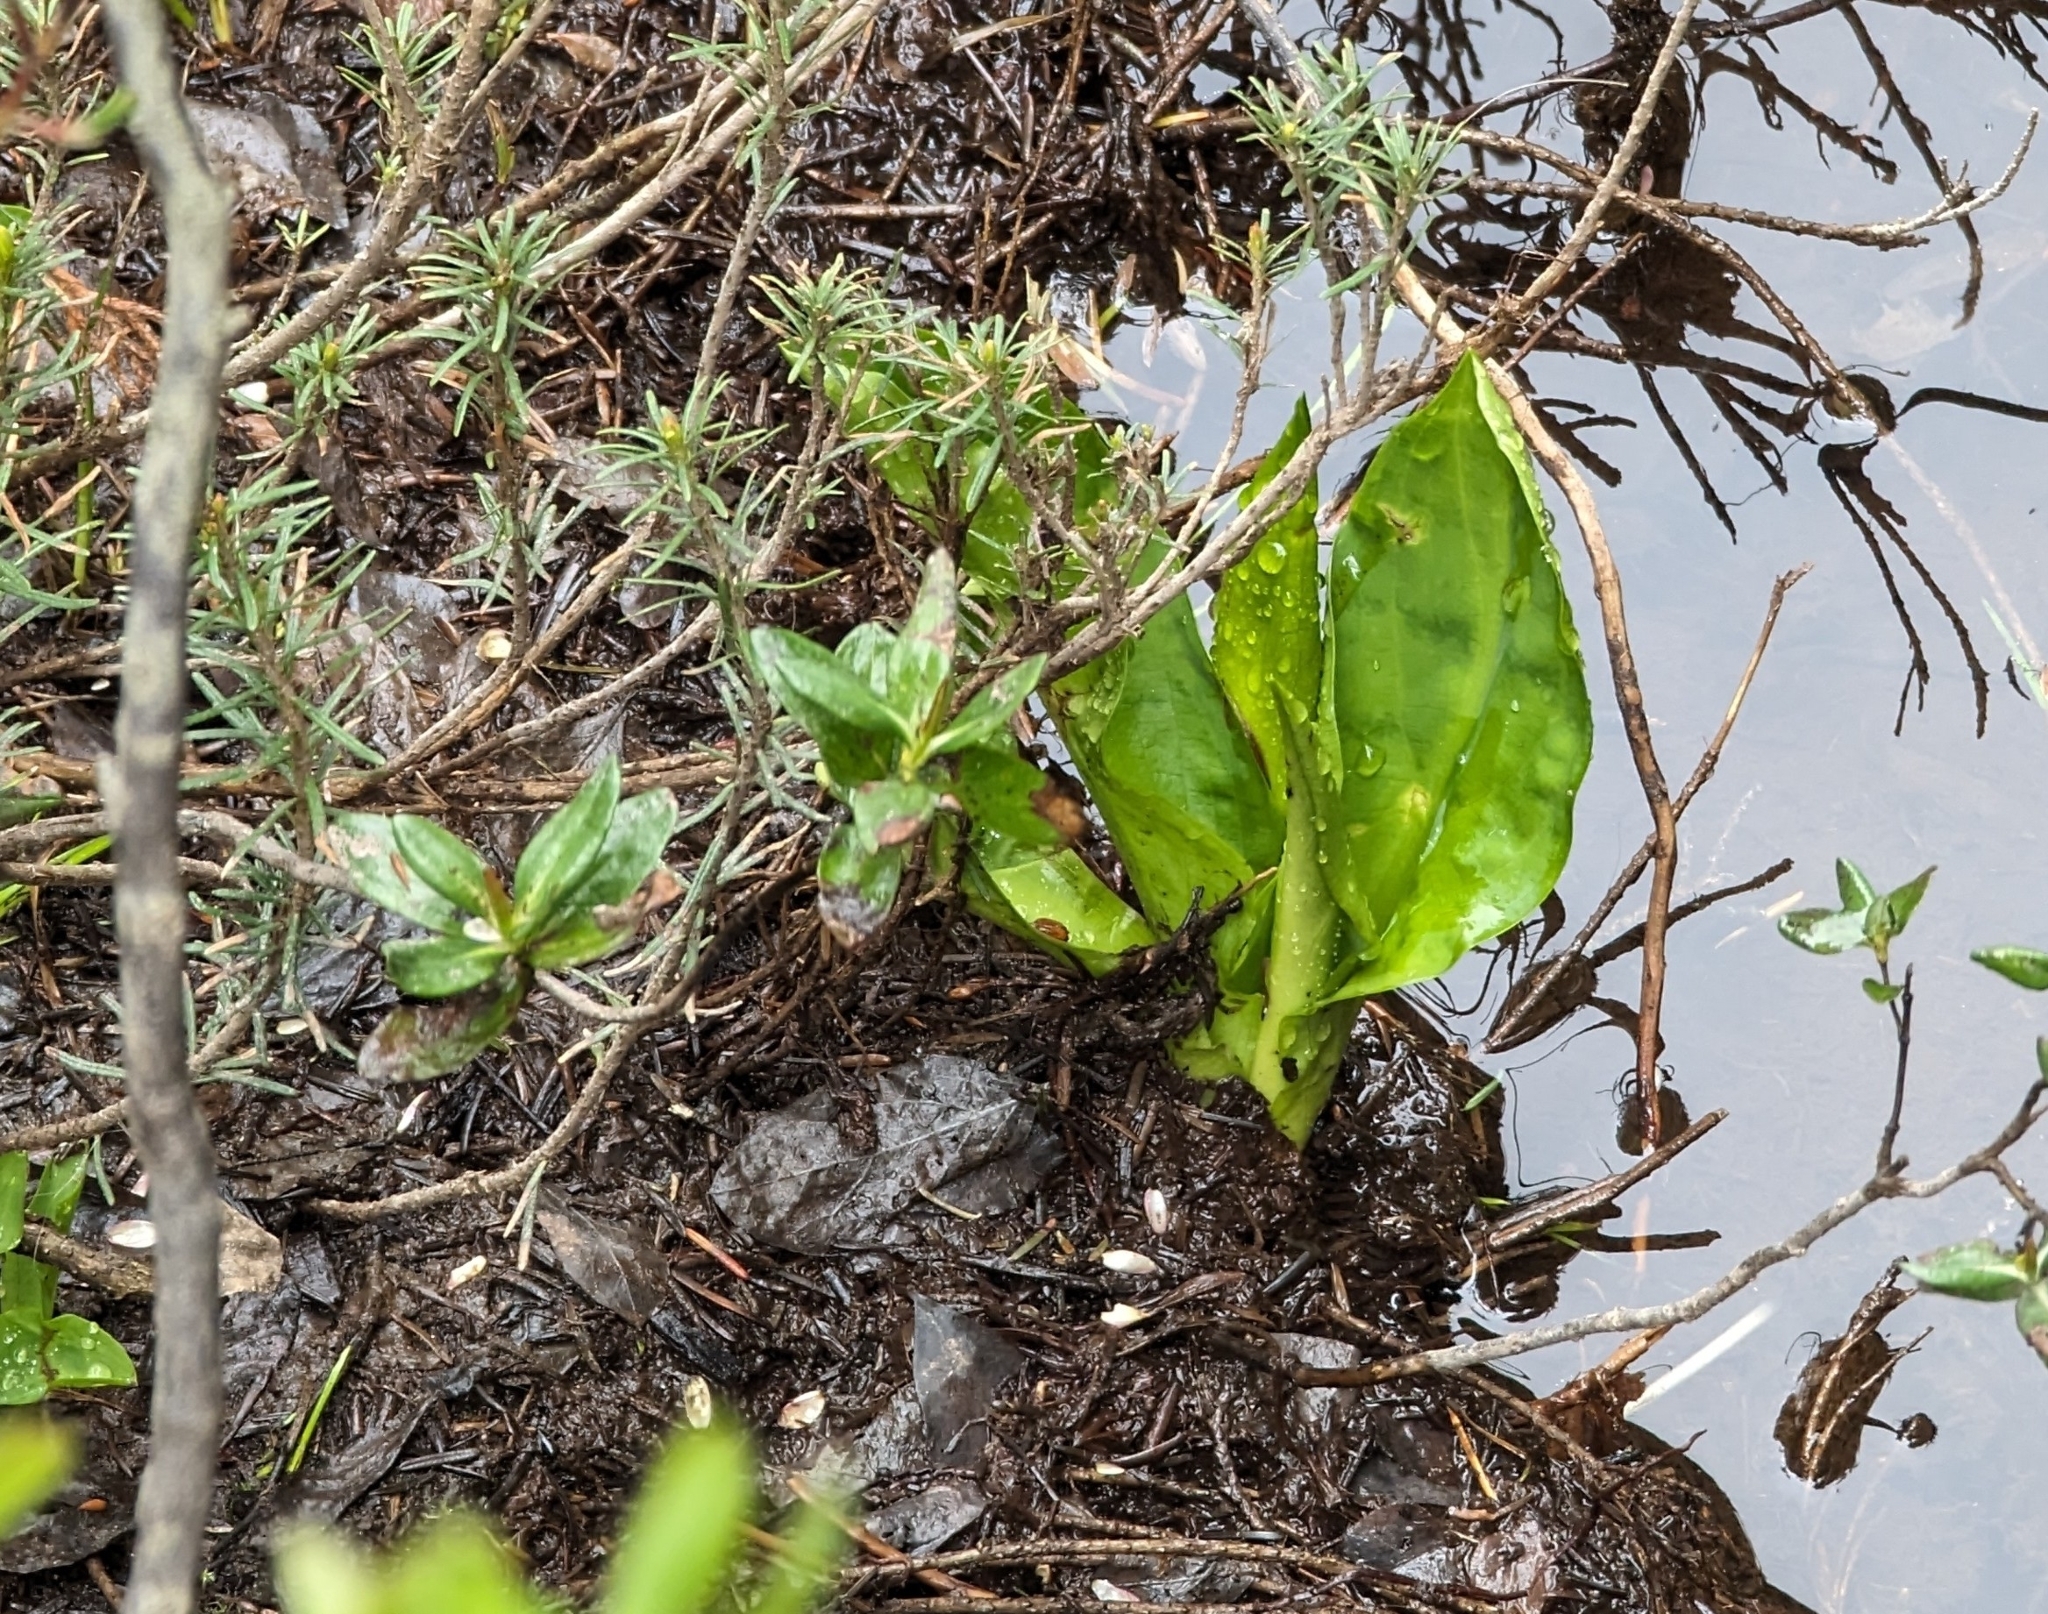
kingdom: Plantae
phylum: Tracheophyta
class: Liliopsida
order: Alismatales
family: Araceae
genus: Lysichiton
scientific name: Lysichiton americanus
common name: American skunk cabbage
